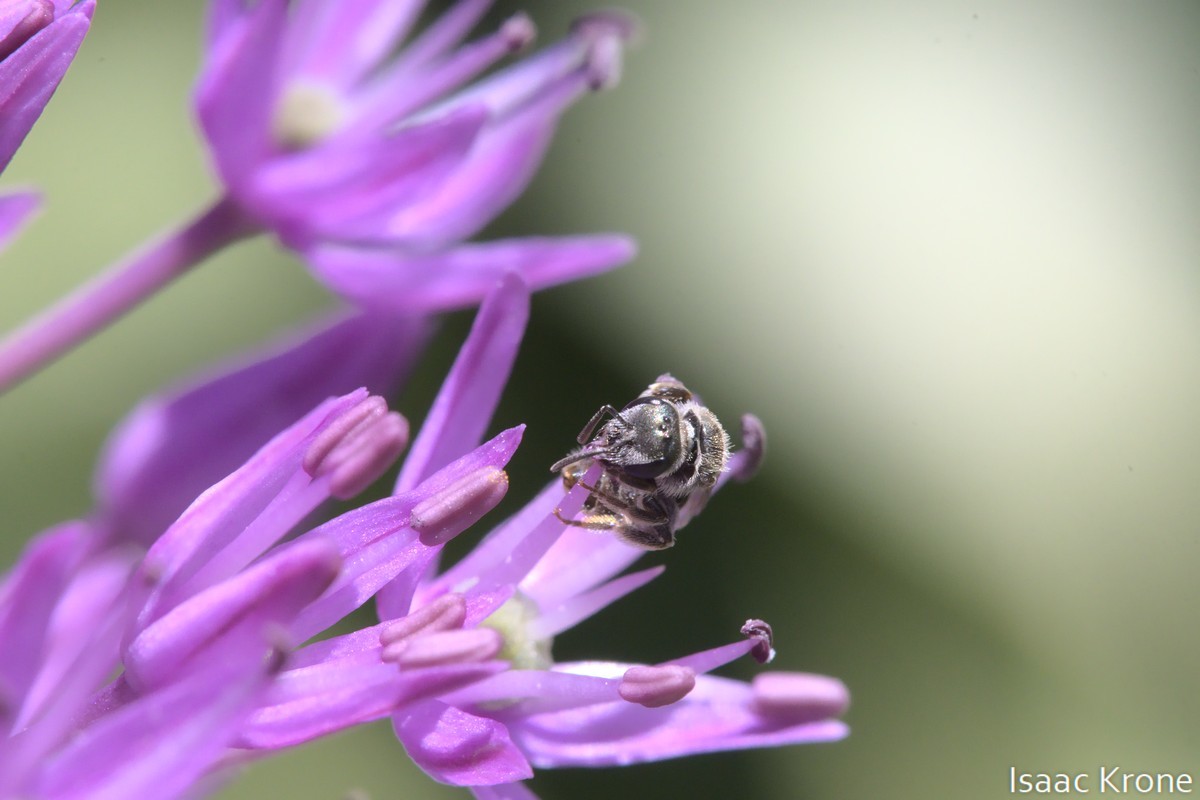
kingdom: Animalia
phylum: Arthropoda
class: Insecta
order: Hymenoptera
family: Halictidae
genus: Halictus
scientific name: Halictus tripartitus
